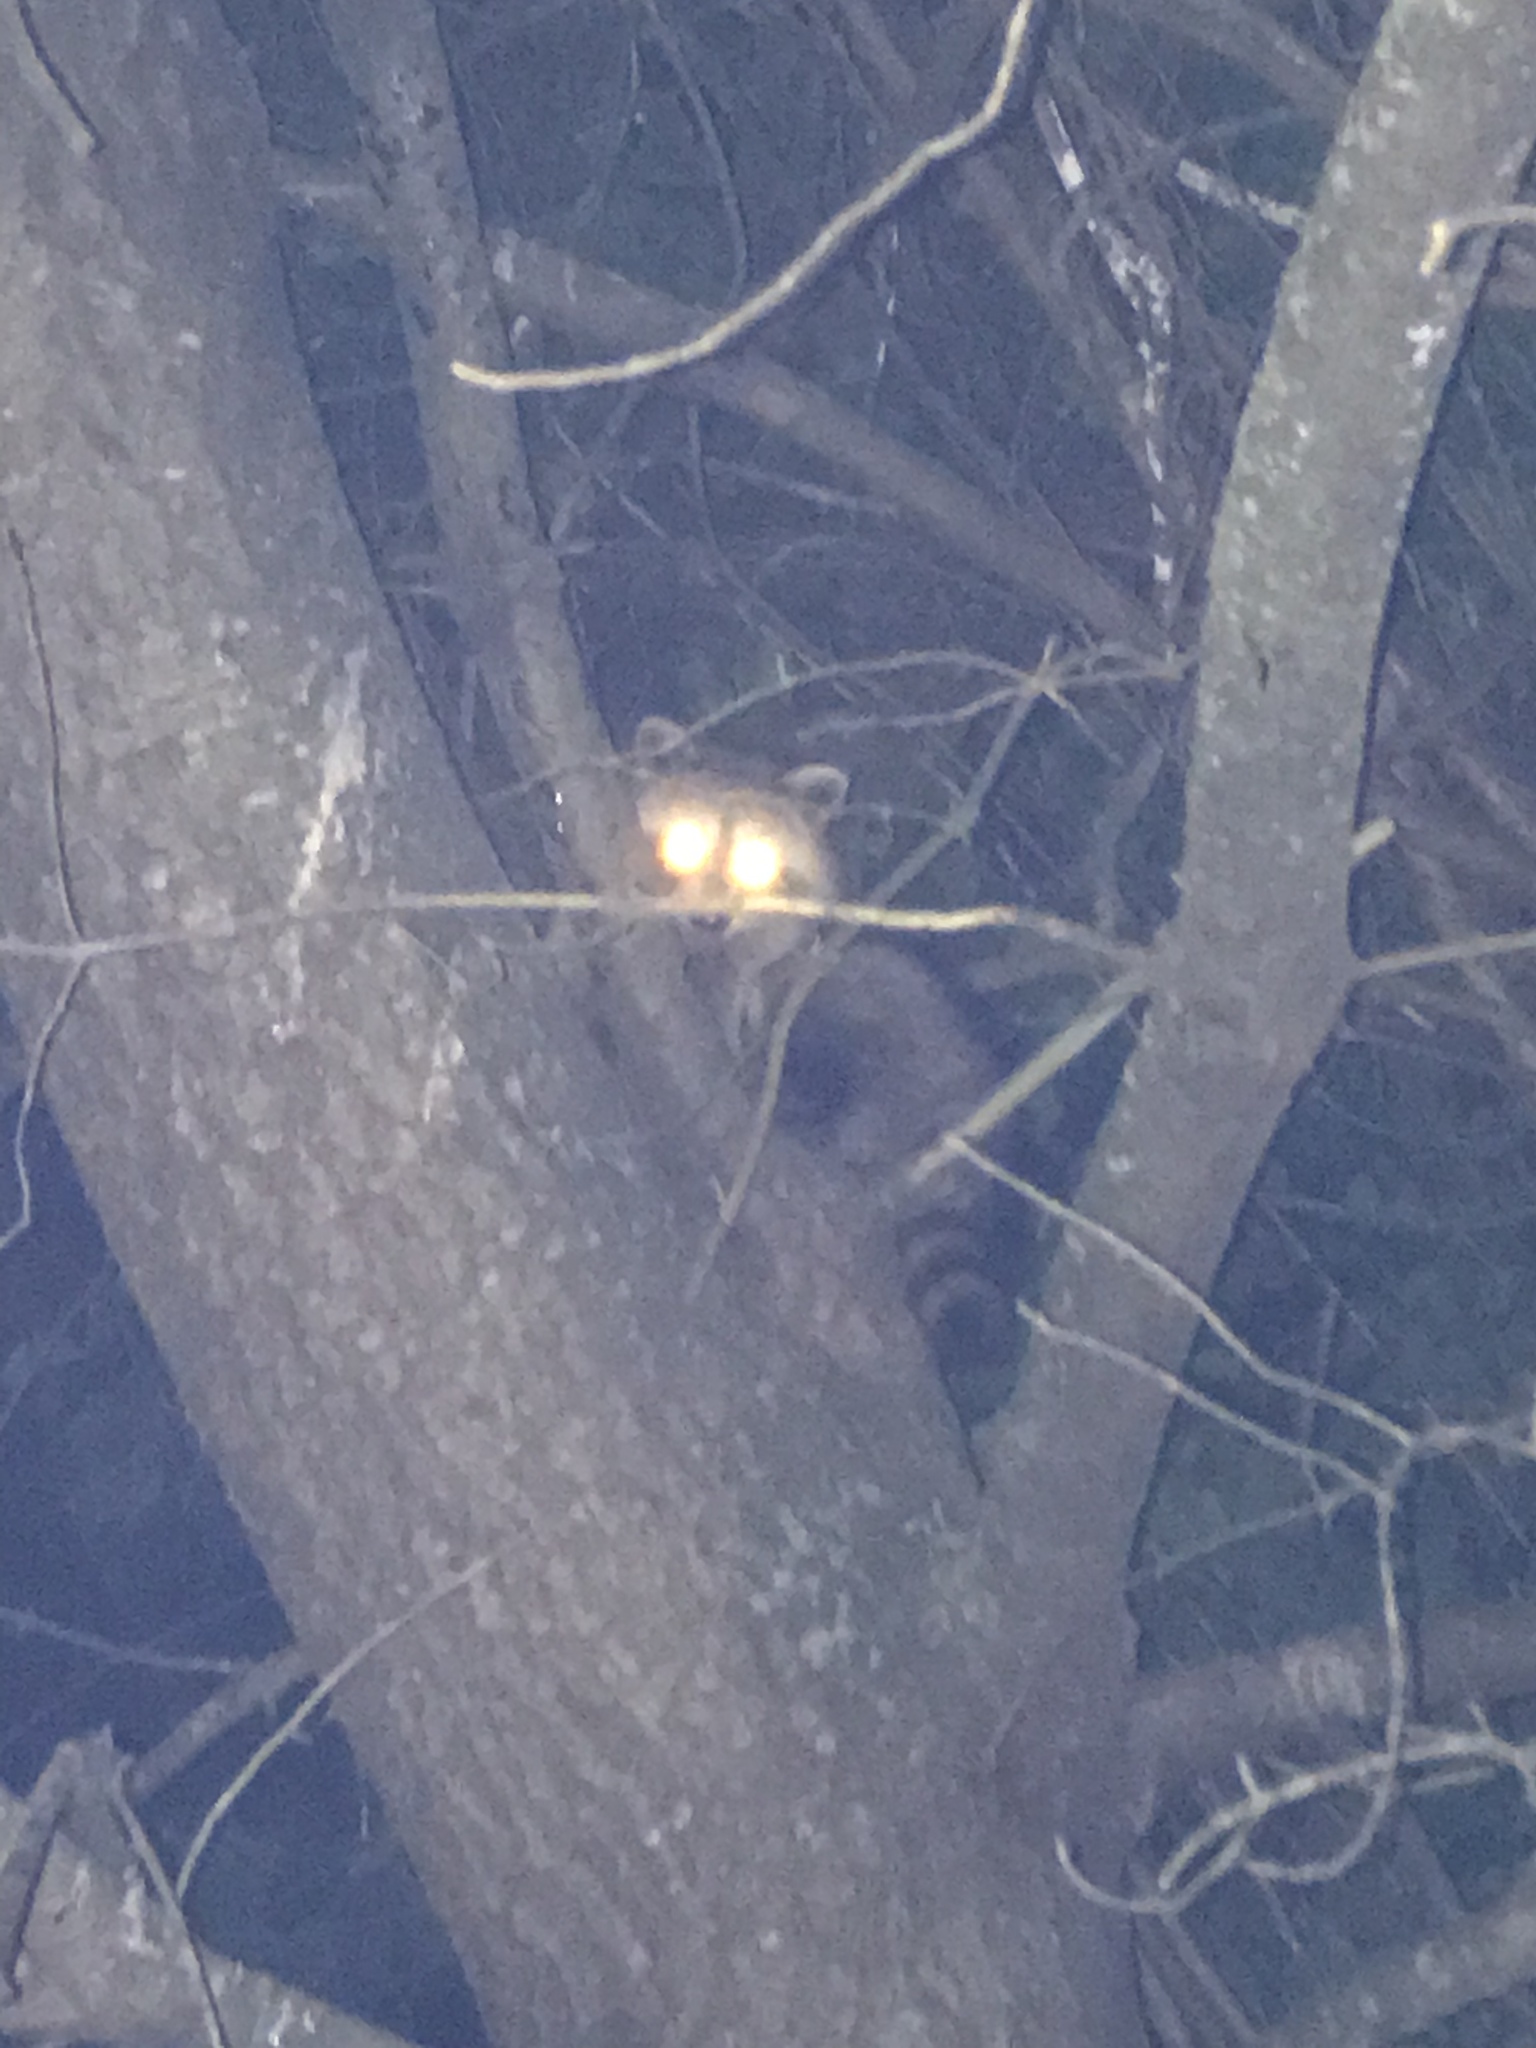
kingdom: Animalia
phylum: Chordata
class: Mammalia
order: Carnivora
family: Procyonidae
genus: Procyon
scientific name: Procyon lotor
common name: Raccoon
